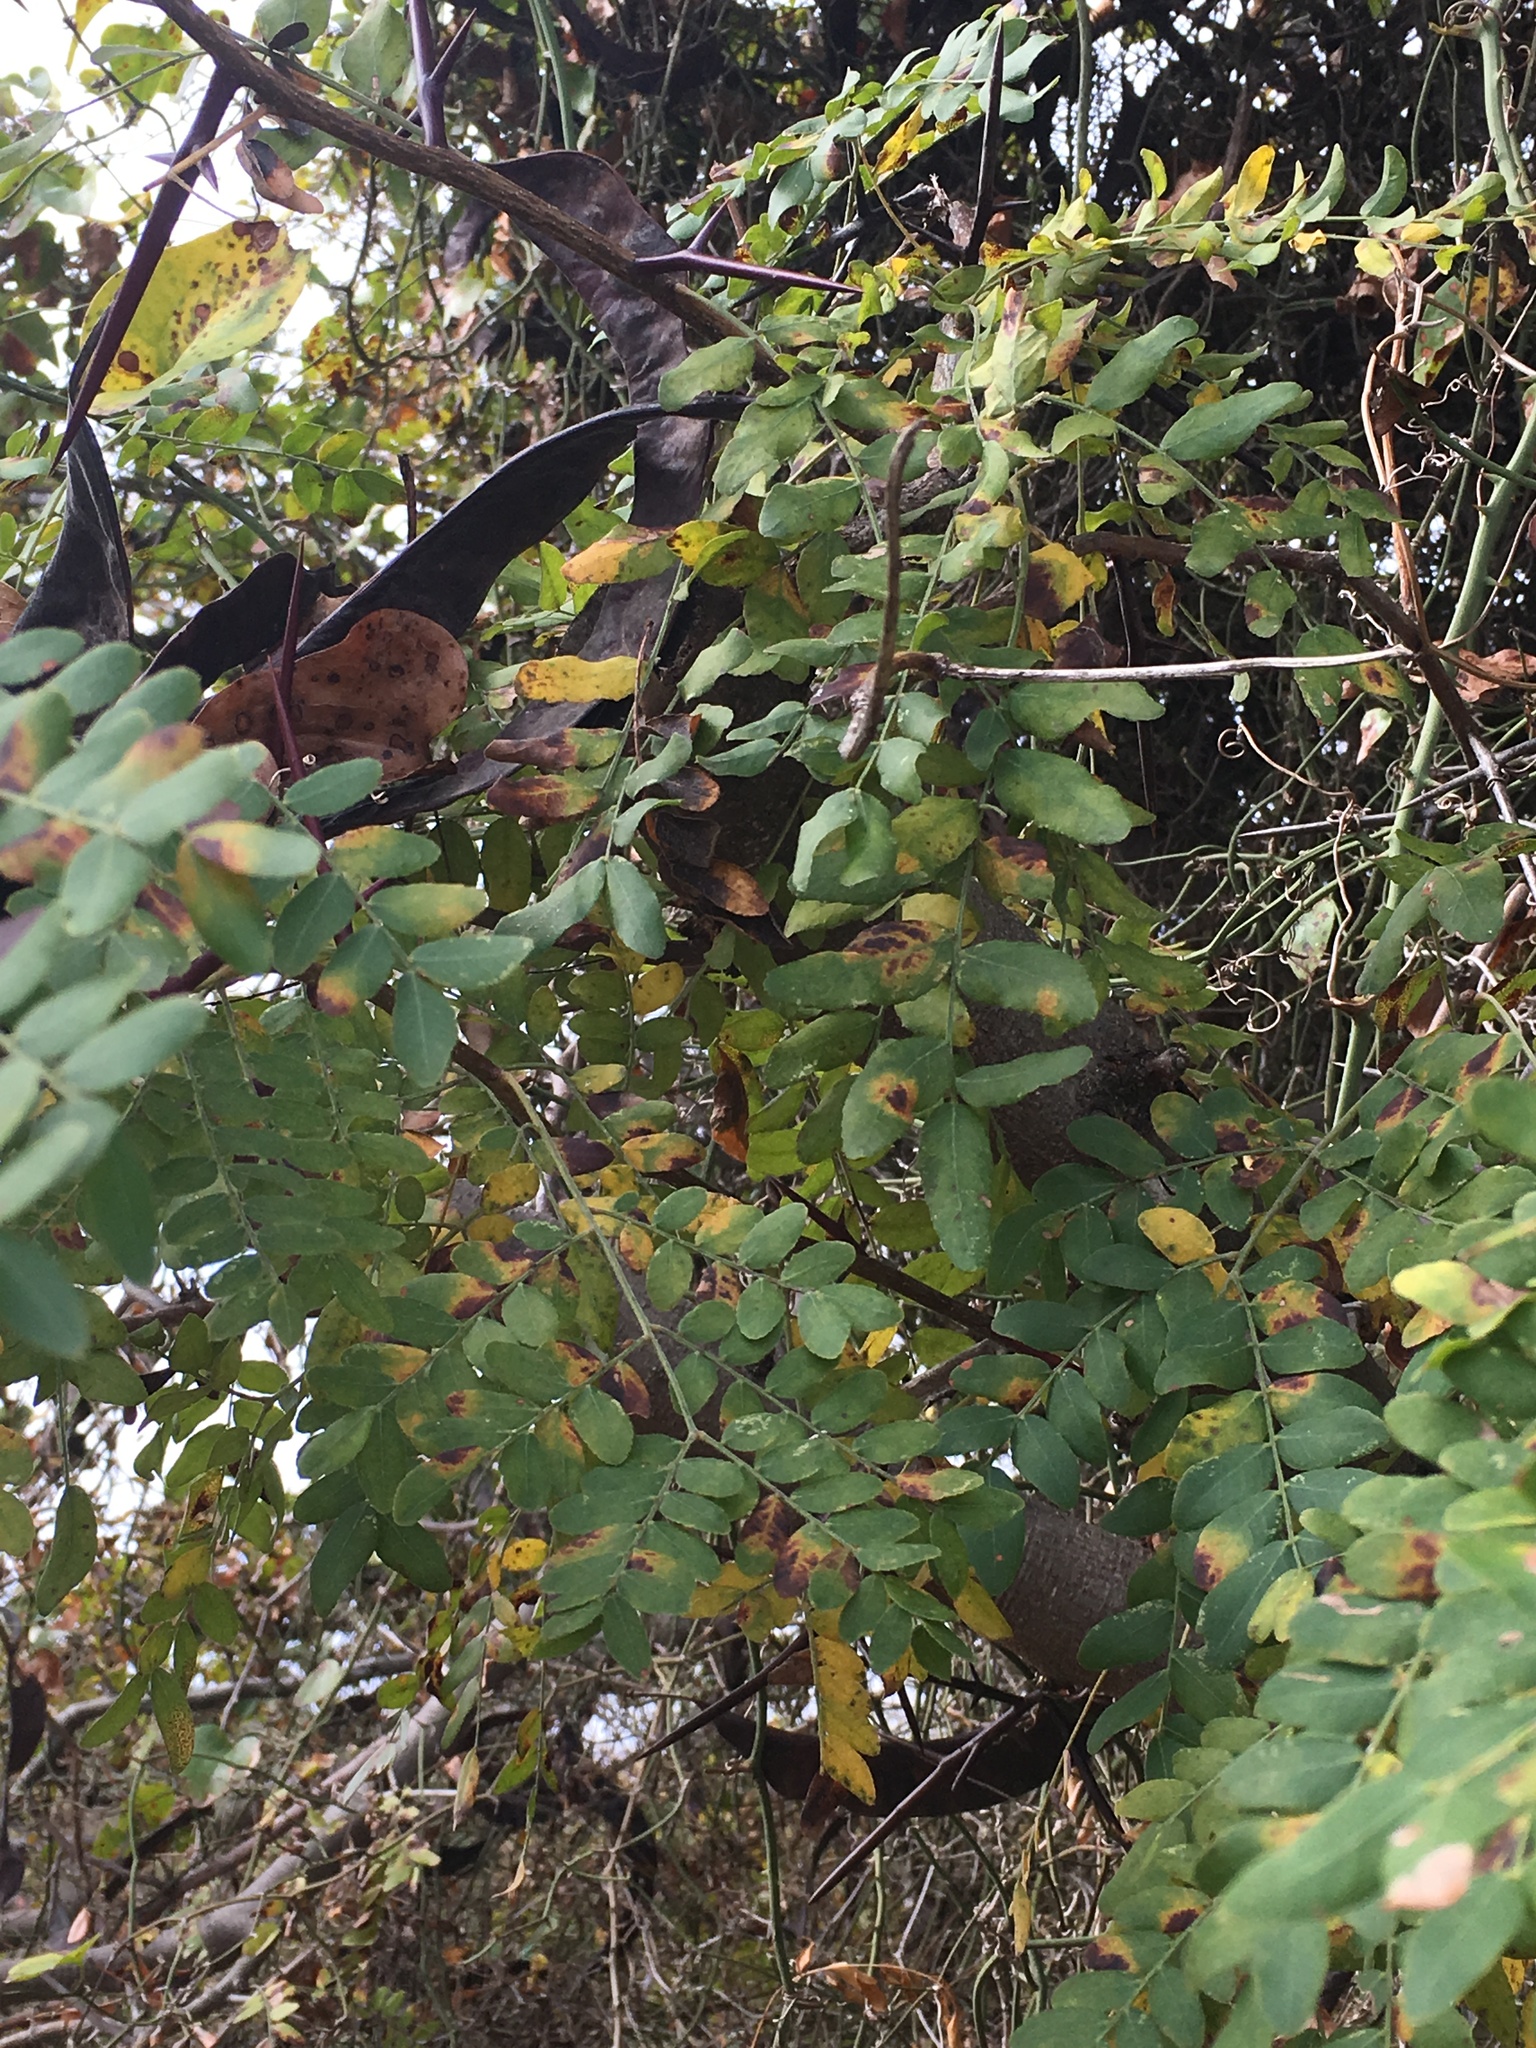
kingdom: Plantae
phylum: Tracheophyta
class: Magnoliopsida
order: Fabales
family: Fabaceae
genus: Gleditsia
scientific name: Gleditsia triacanthos
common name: Common honeylocust
